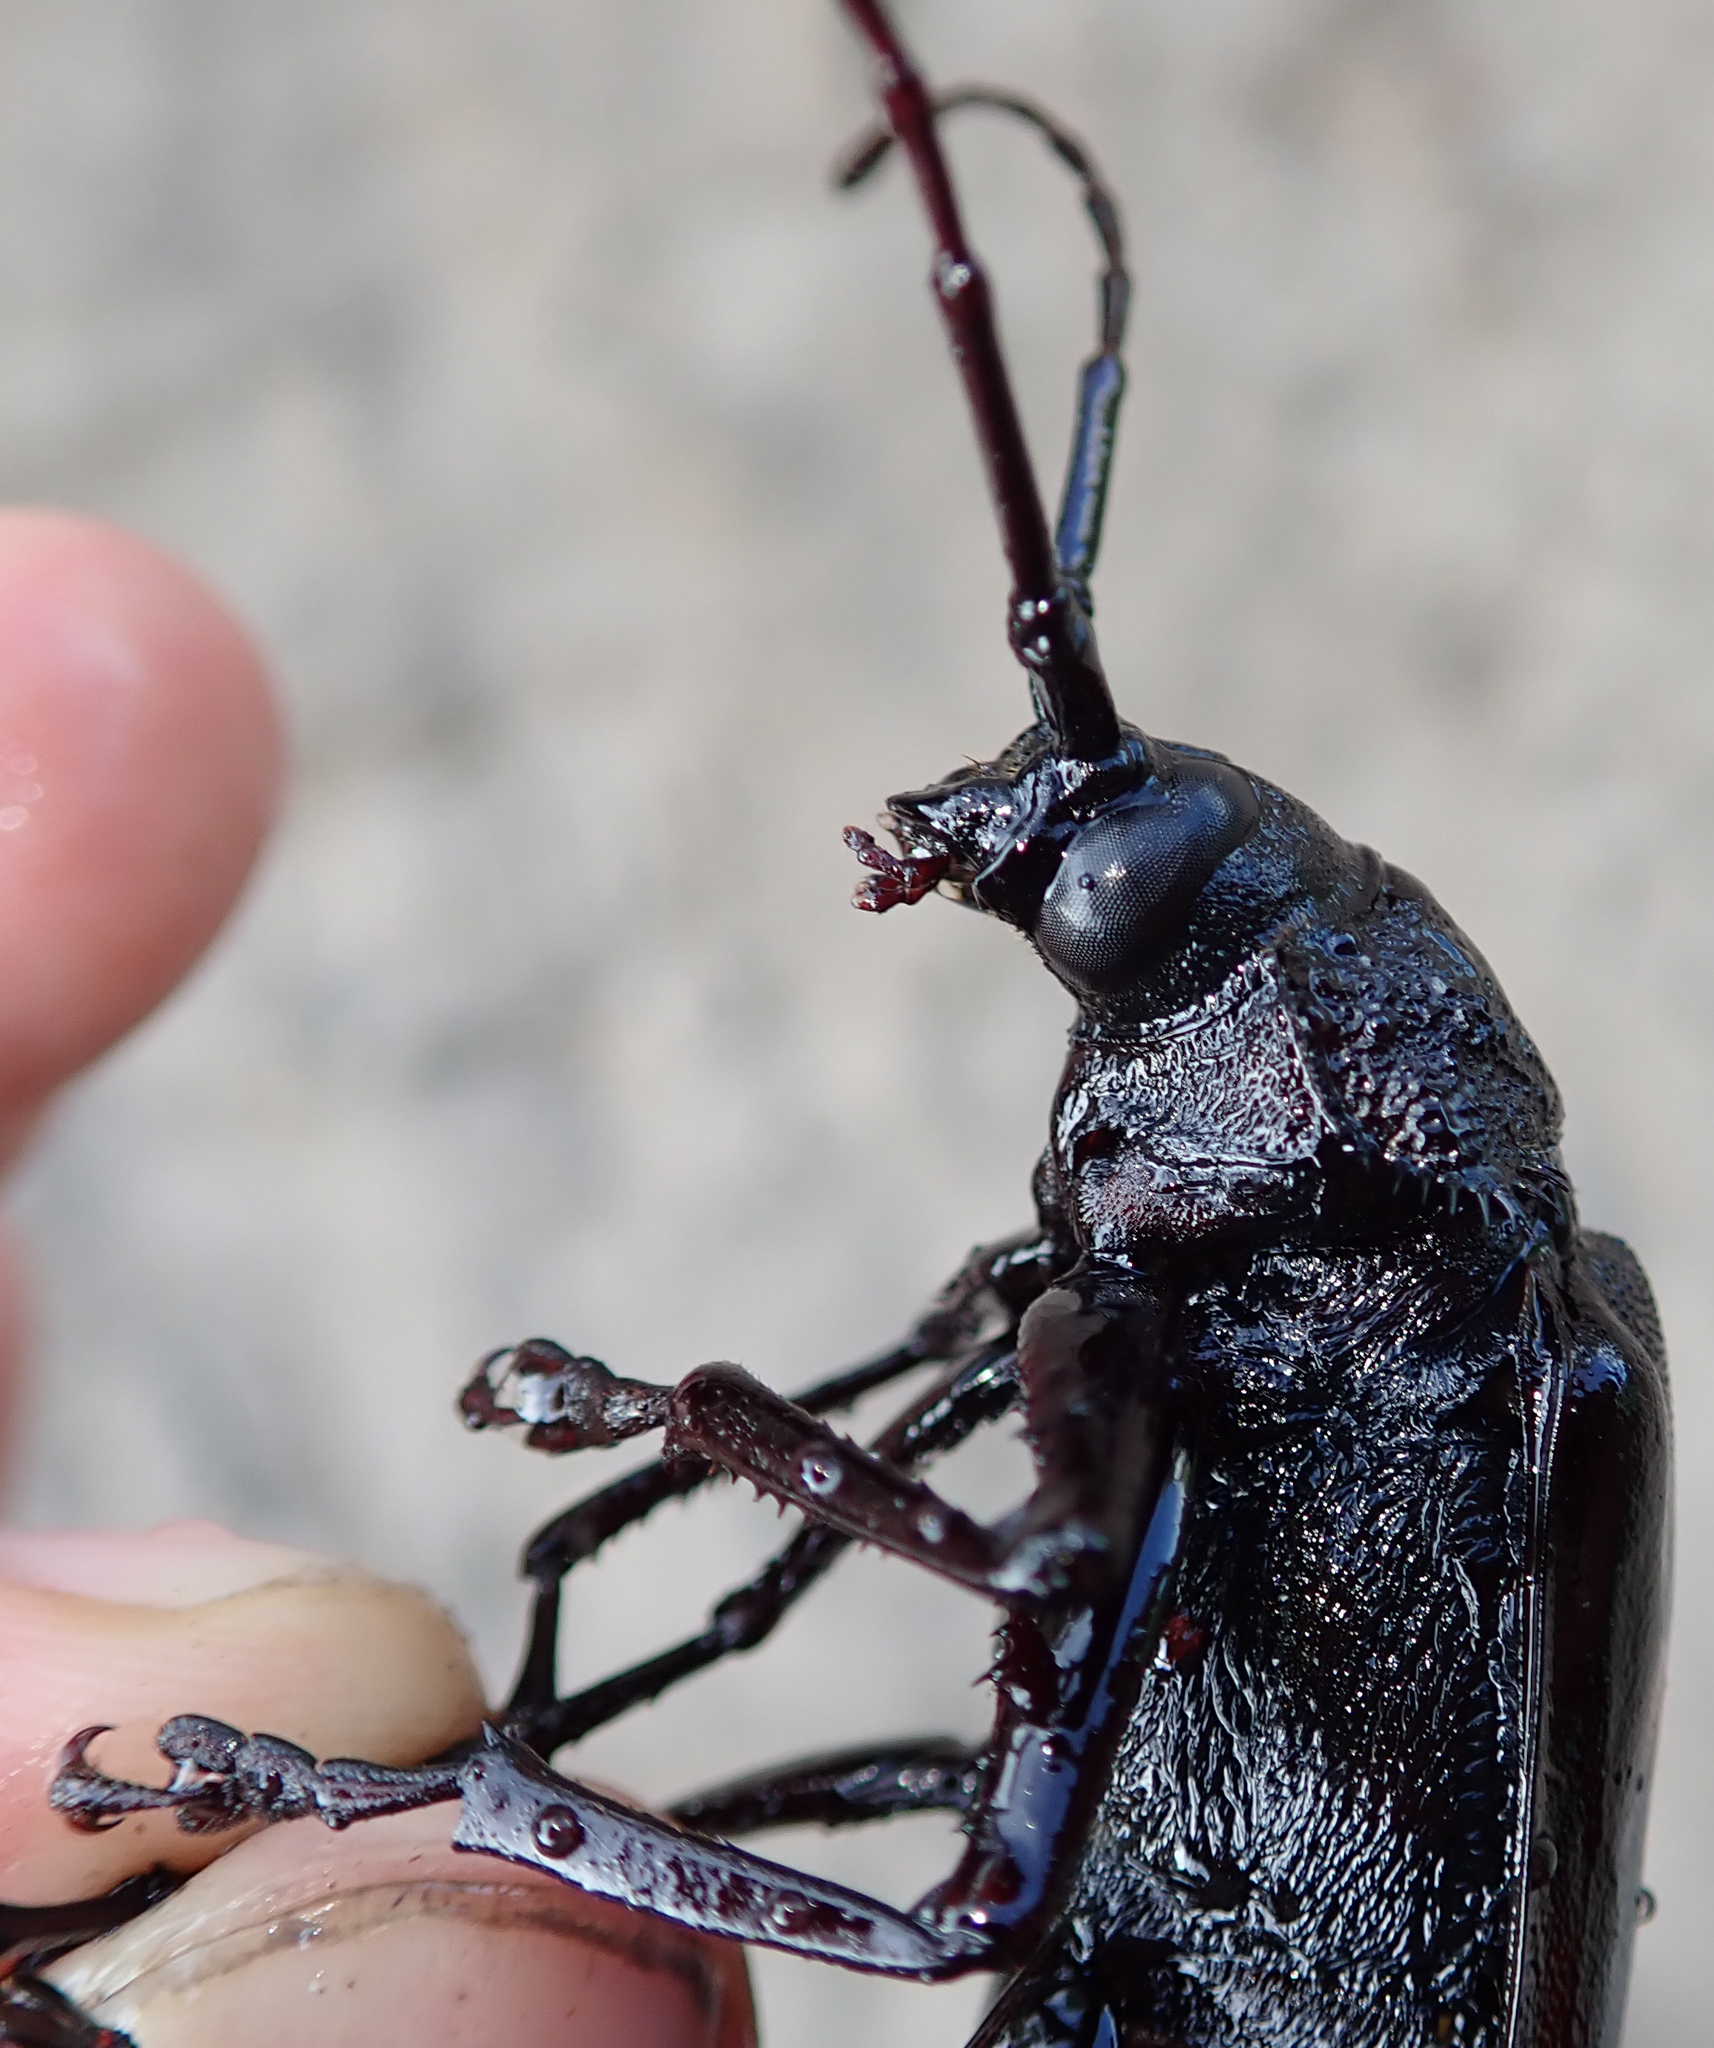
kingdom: Animalia
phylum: Arthropoda
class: Insecta
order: Coleoptera
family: Cerambycidae
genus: Macrotoma
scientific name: Macrotoma palmata
